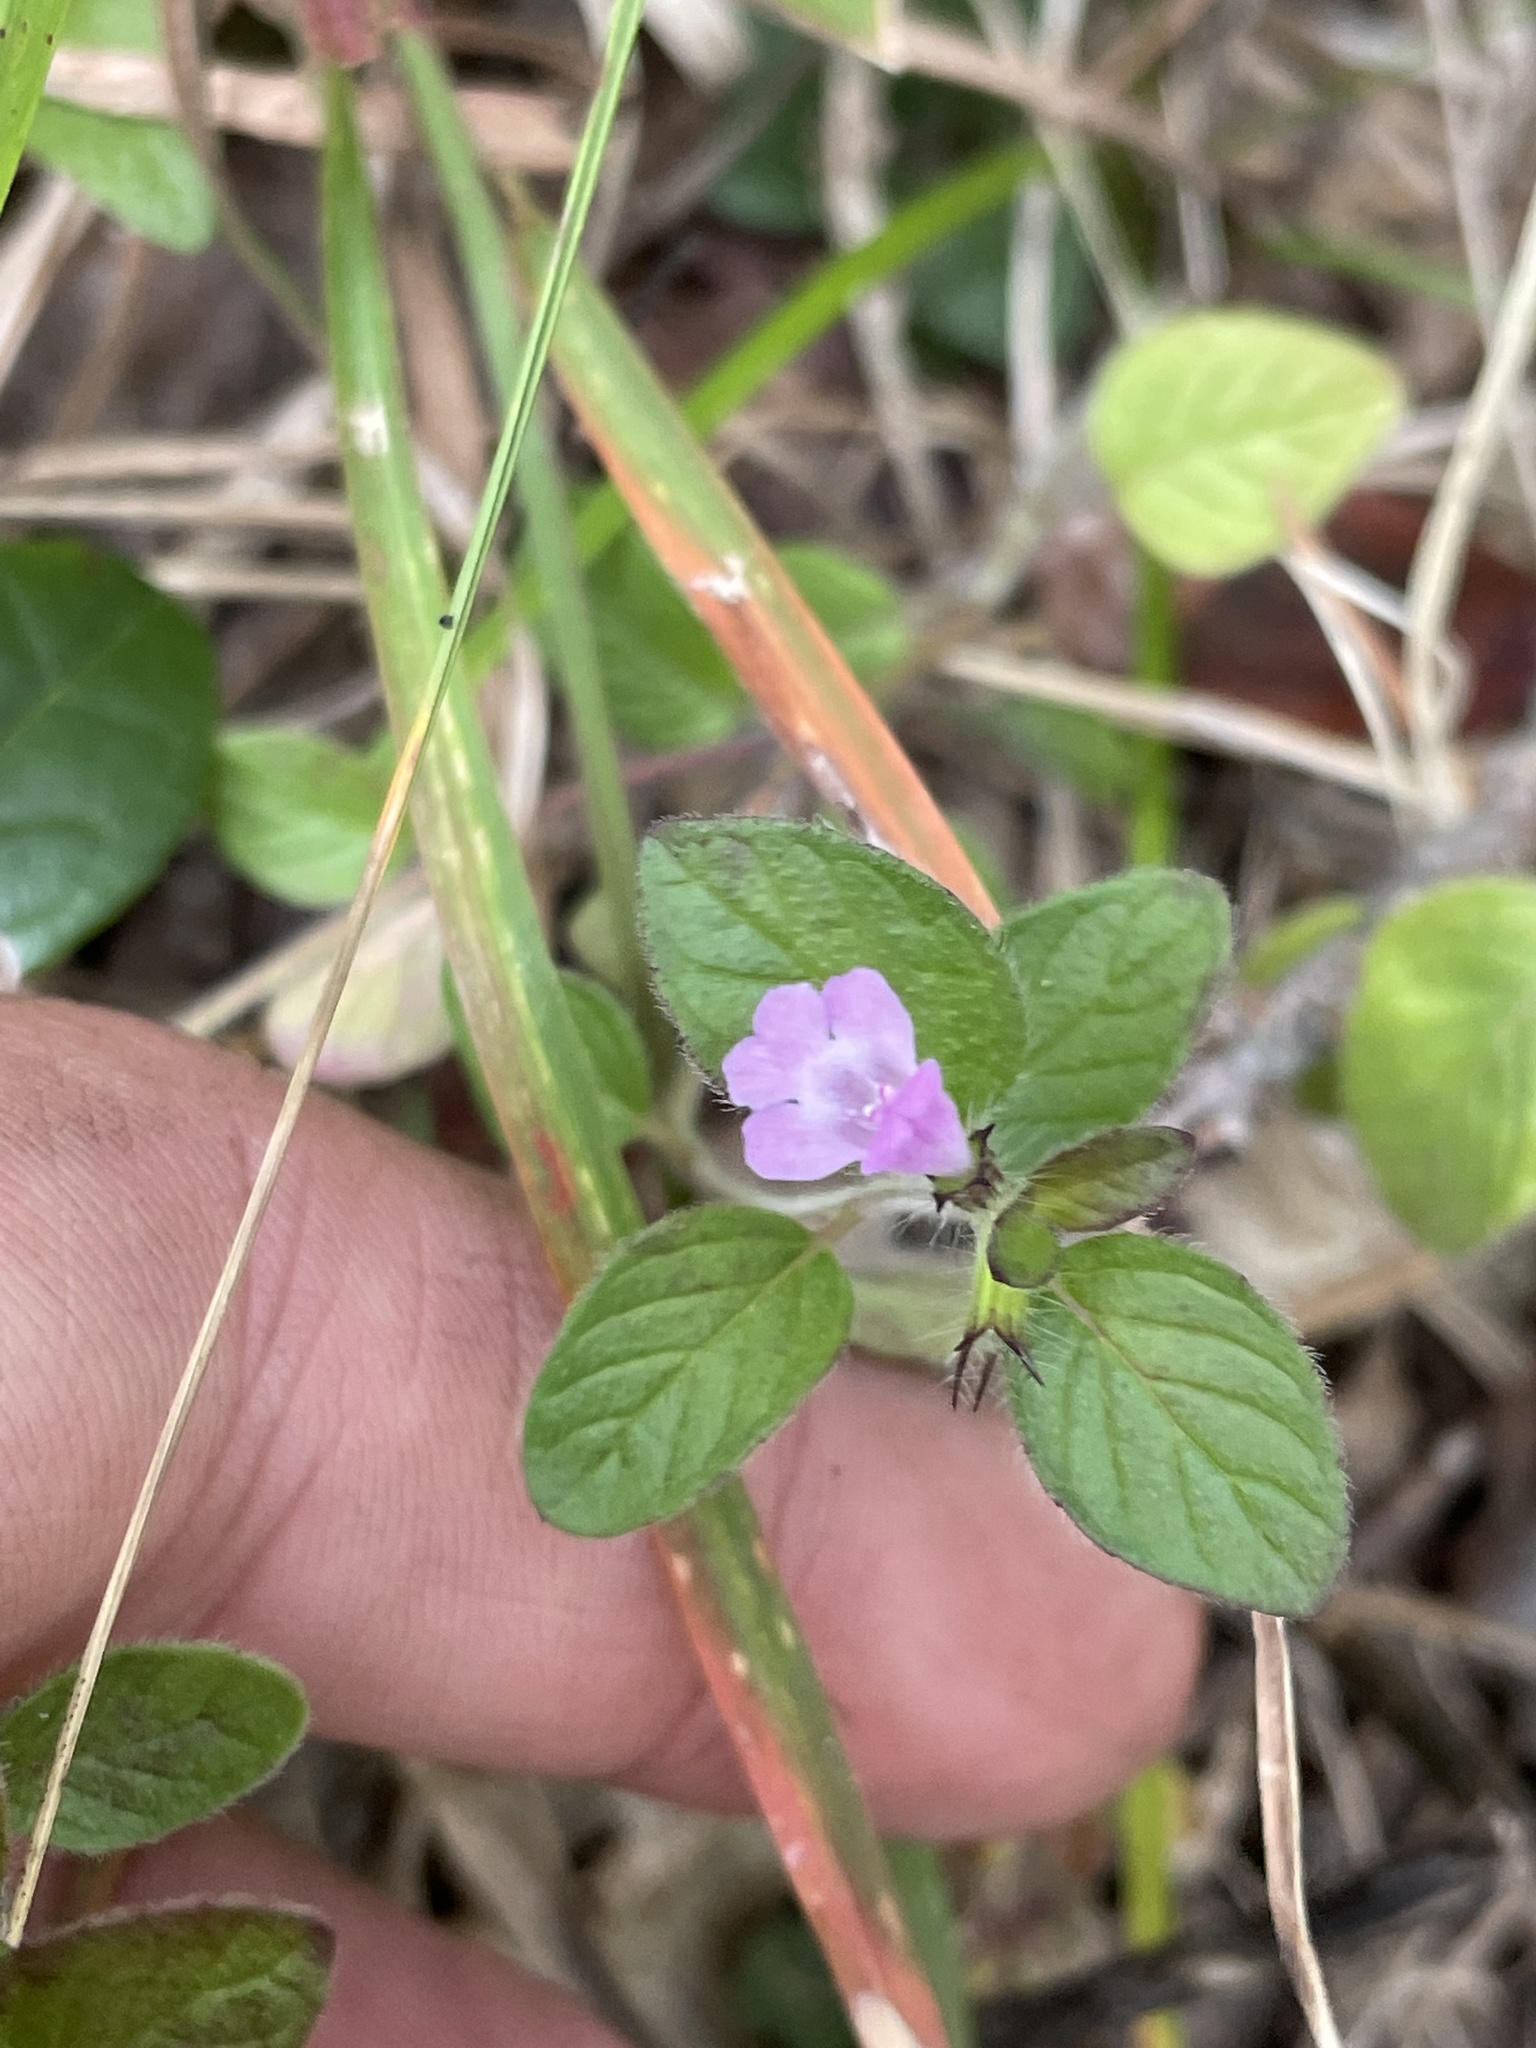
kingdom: Plantae
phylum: Tracheophyta
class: Magnoliopsida
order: Lamiales
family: Lamiaceae
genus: Clinopodium
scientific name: Clinopodium vulgare
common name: Wild basil
